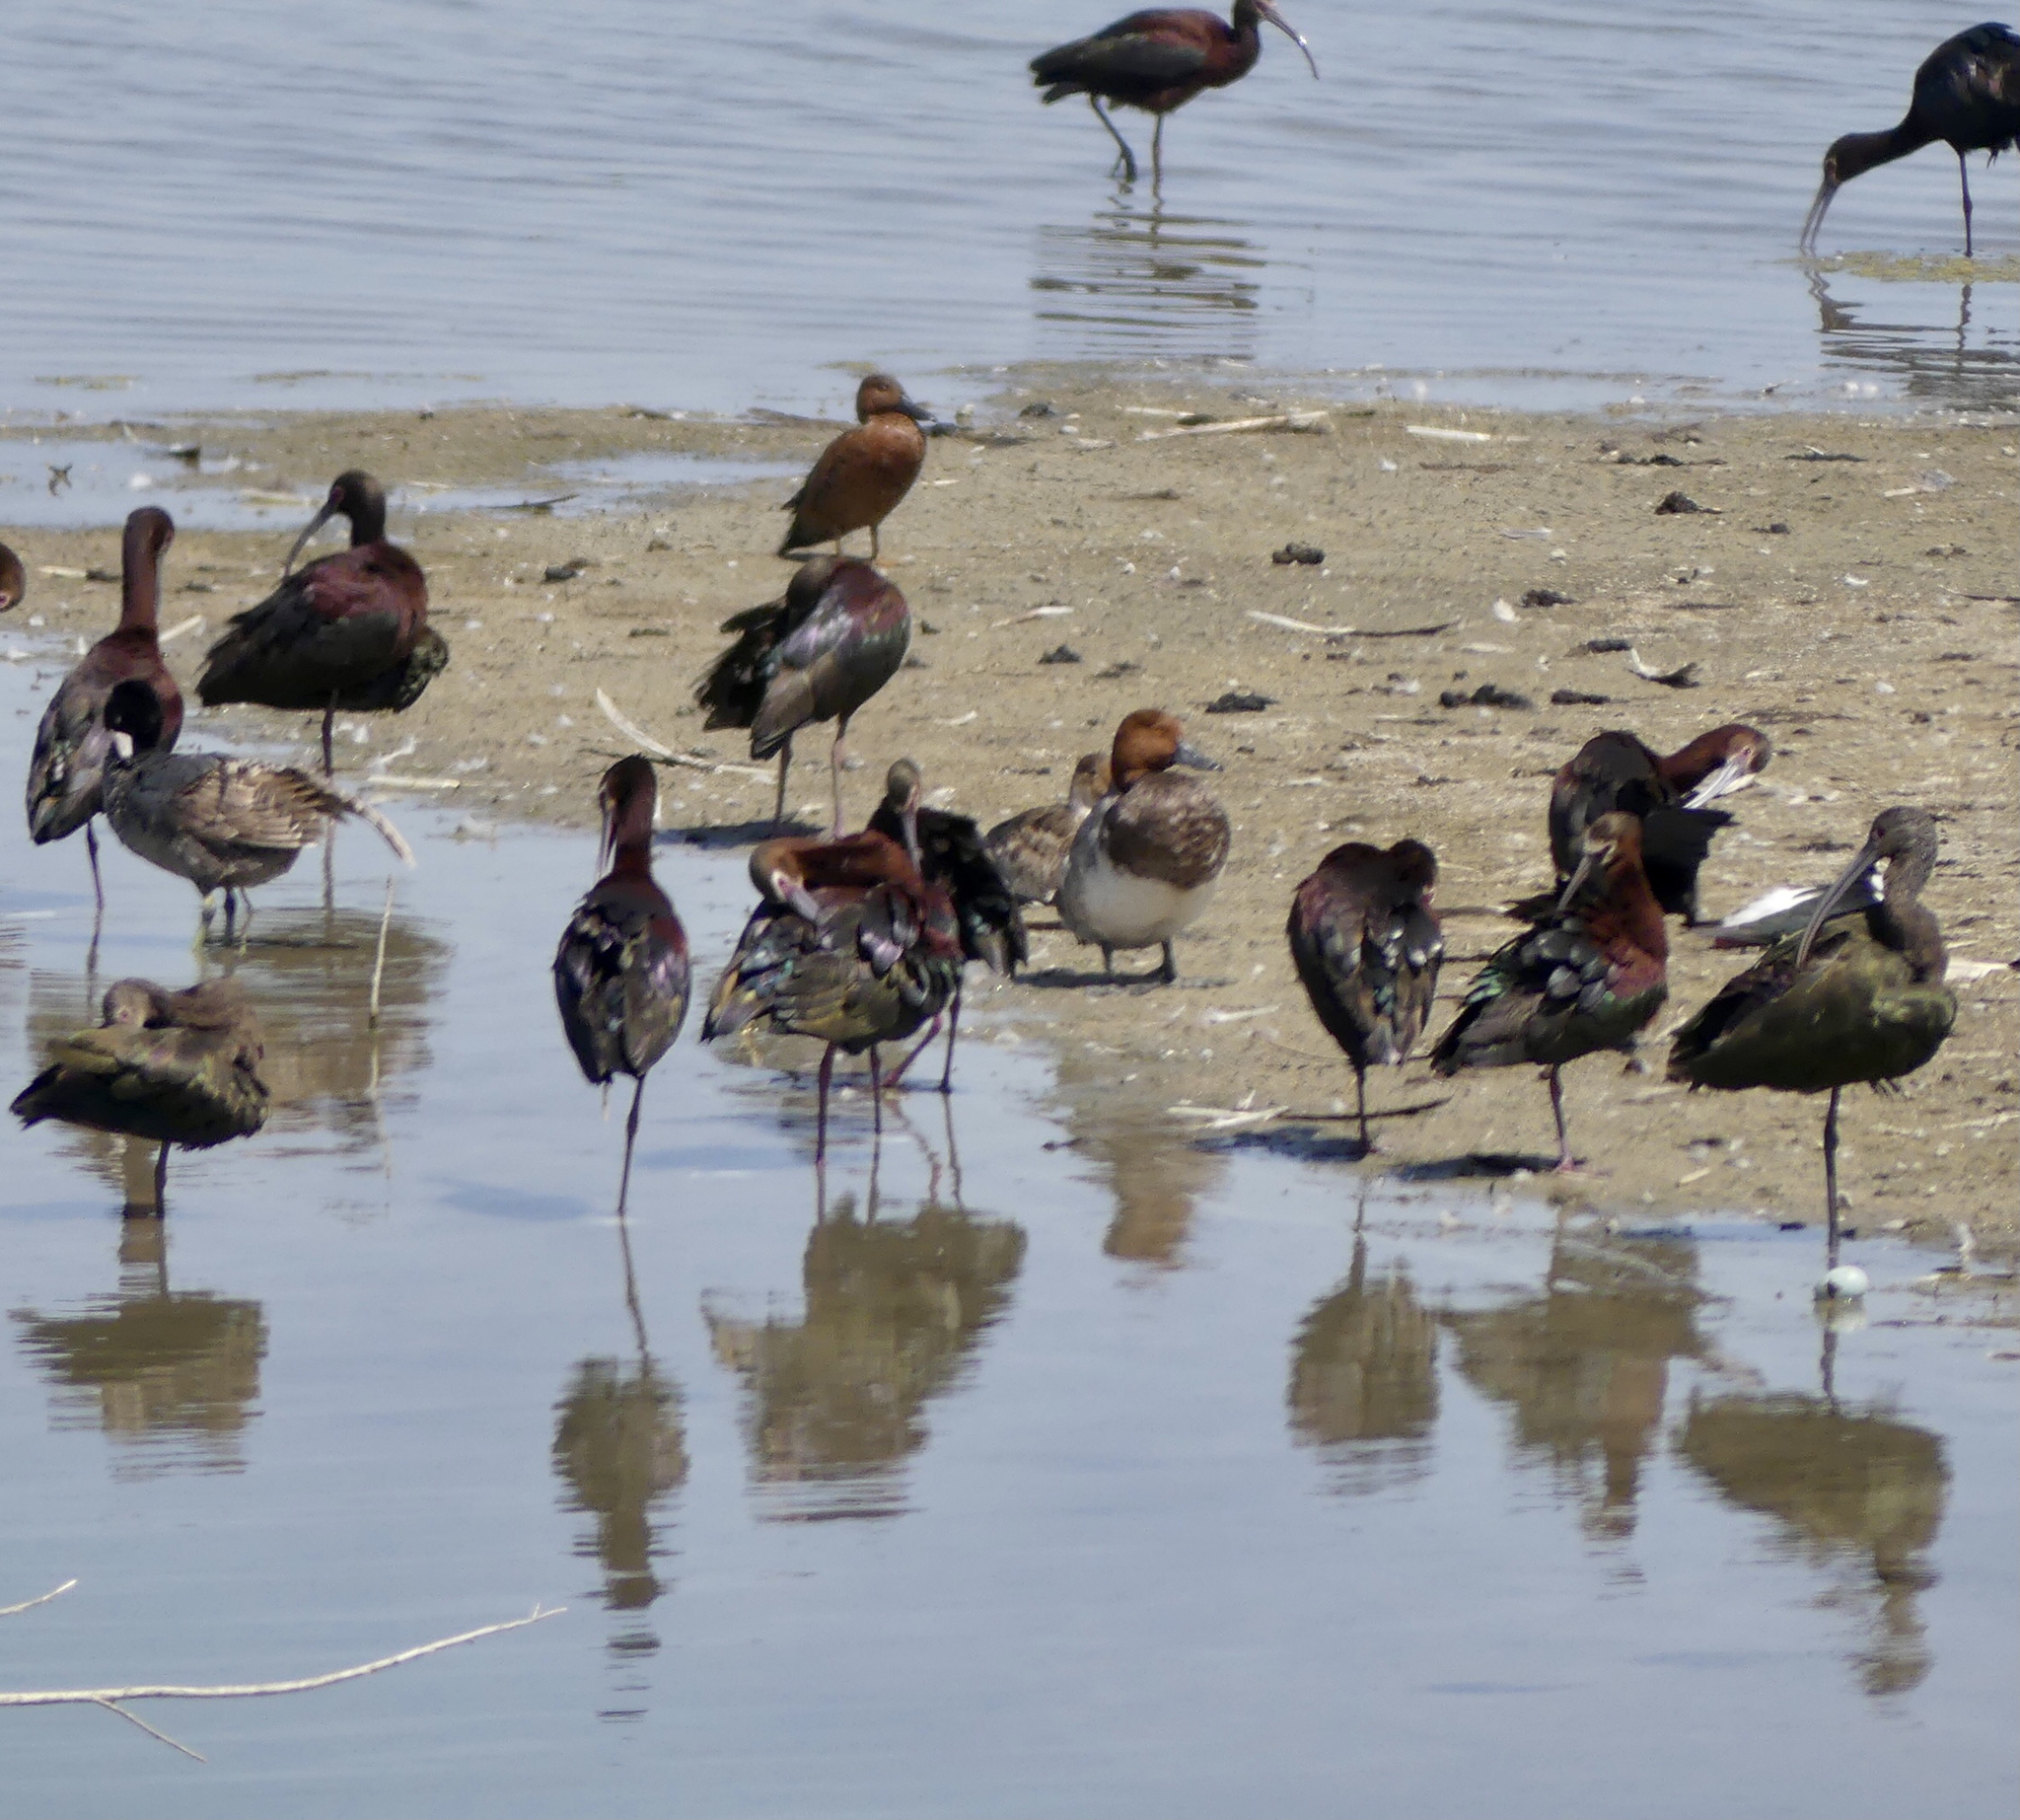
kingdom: Animalia
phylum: Chordata
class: Aves
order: Anseriformes
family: Anatidae
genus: Aythya
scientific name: Aythya americana
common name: Redhead
